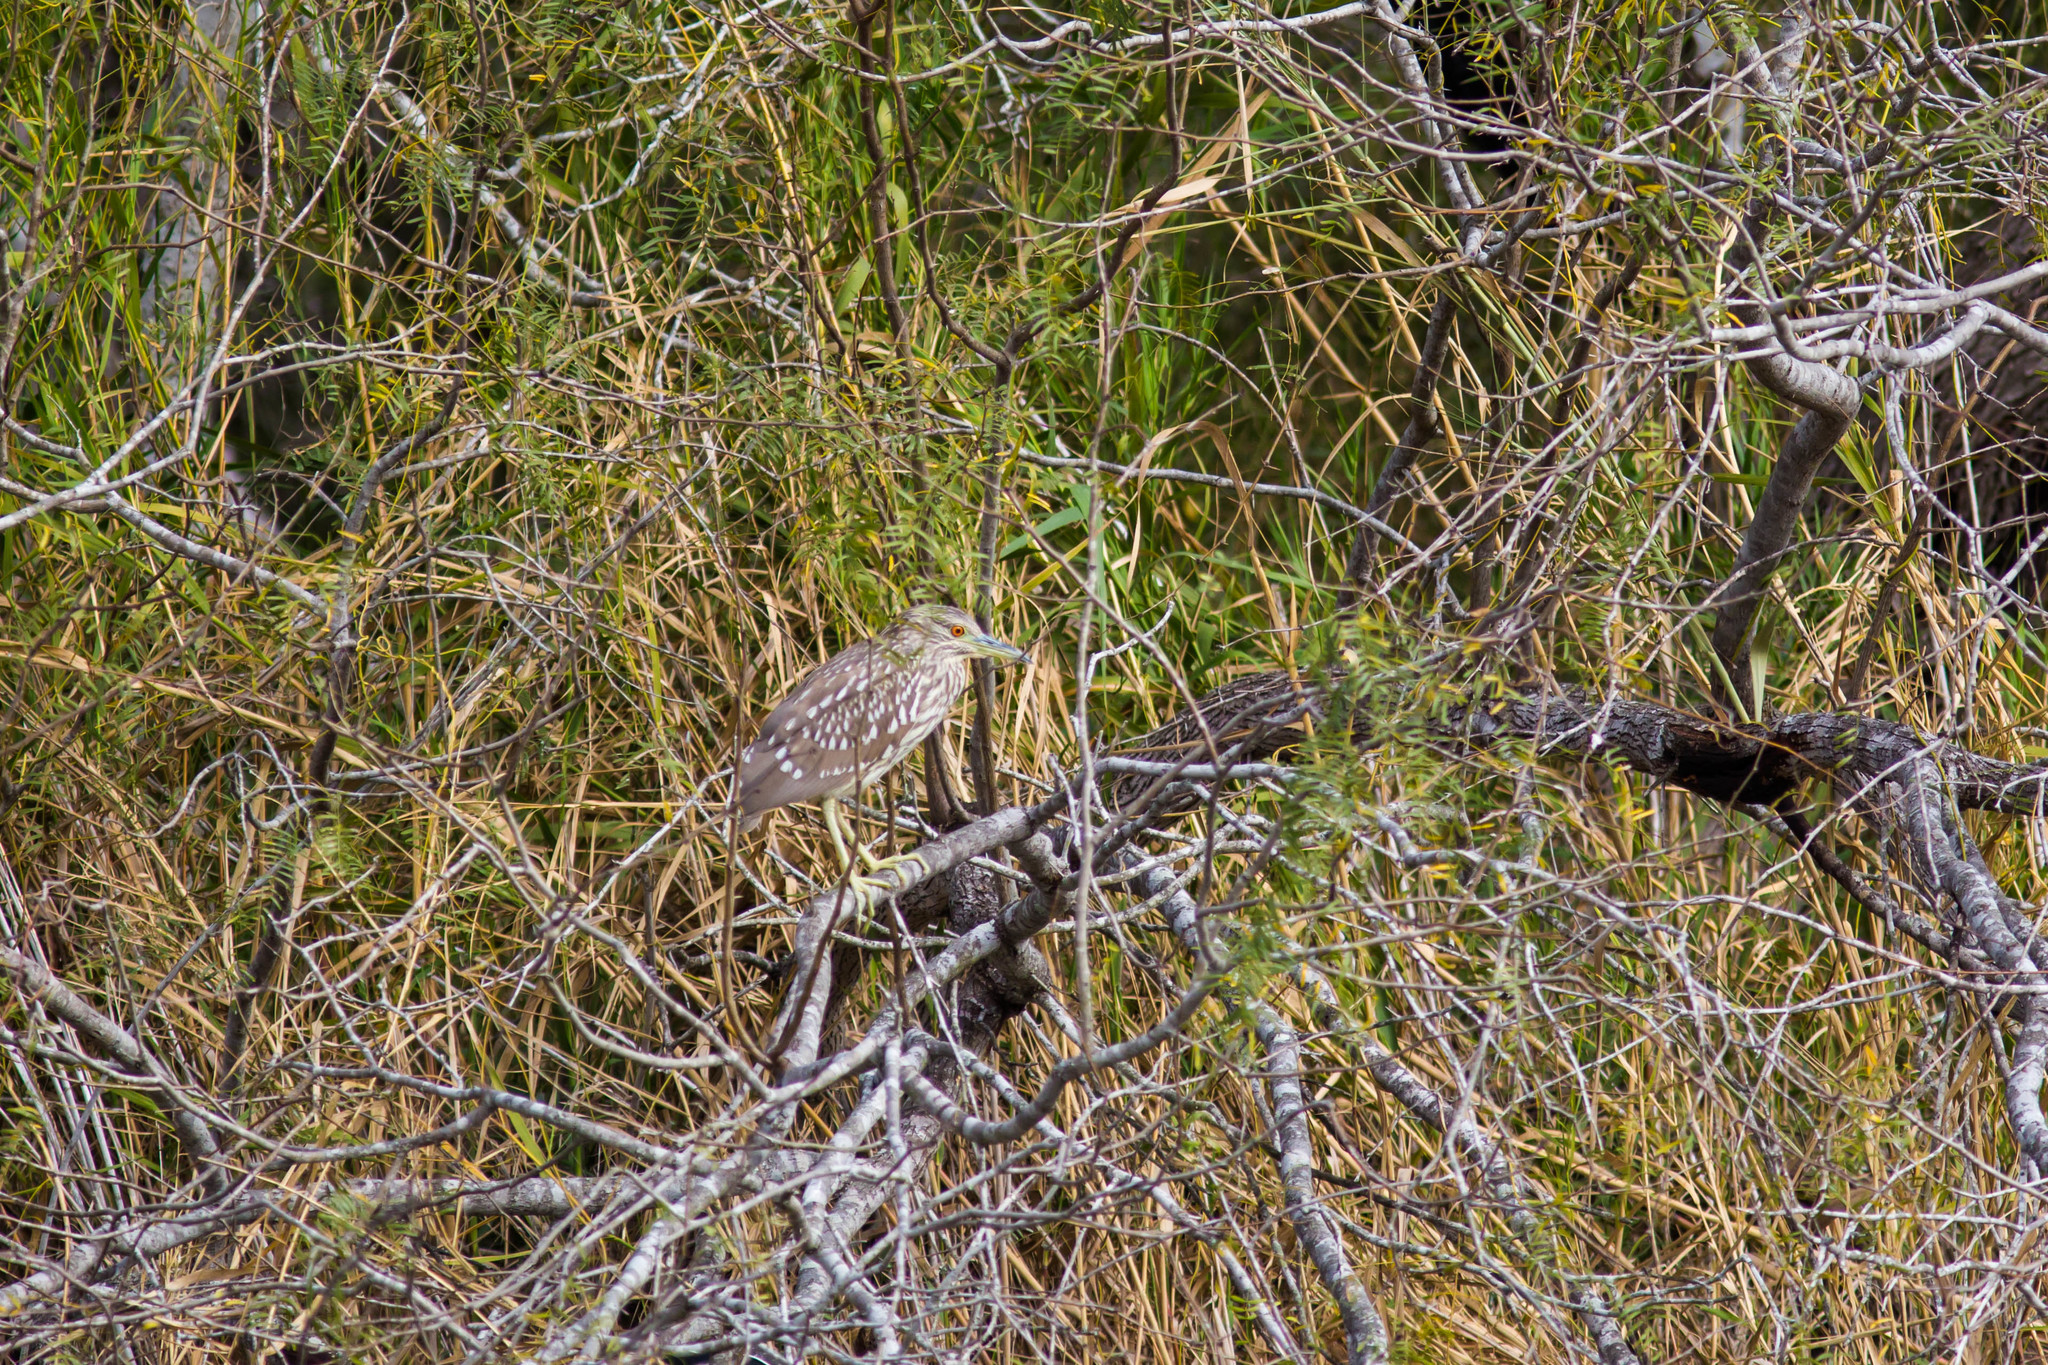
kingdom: Animalia
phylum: Chordata
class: Aves
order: Pelecaniformes
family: Ardeidae
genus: Nycticorax
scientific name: Nycticorax nycticorax
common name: Black-crowned night heron
